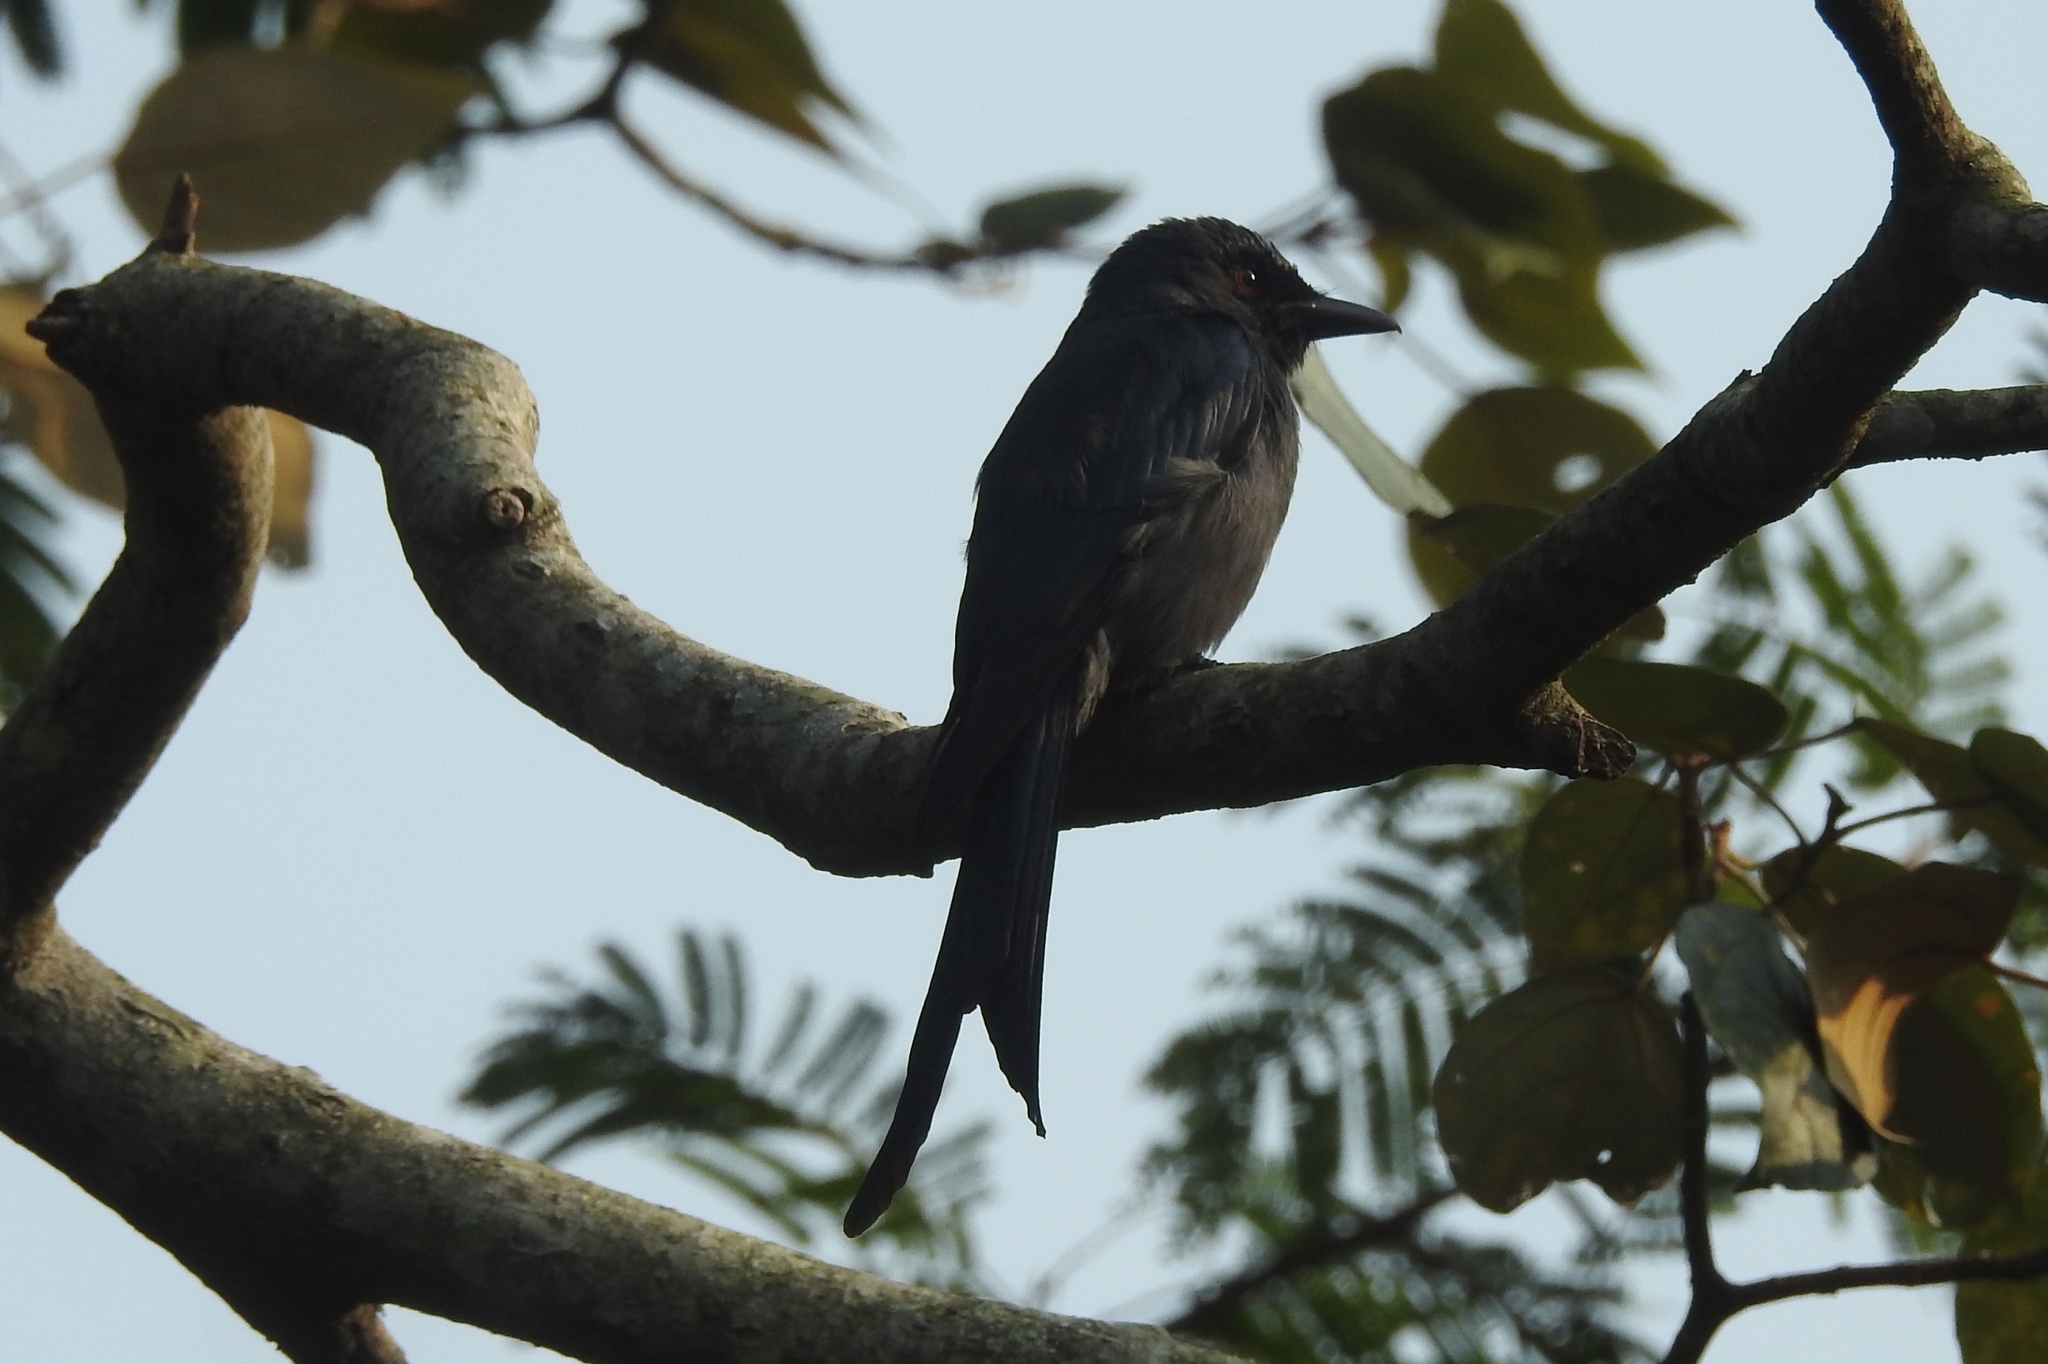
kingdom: Animalia
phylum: Chordata
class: Aves
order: Passeriformes
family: Dicruridae
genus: Dicrurus
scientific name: Dicrurus leucophaeus
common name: Ashy drongo
